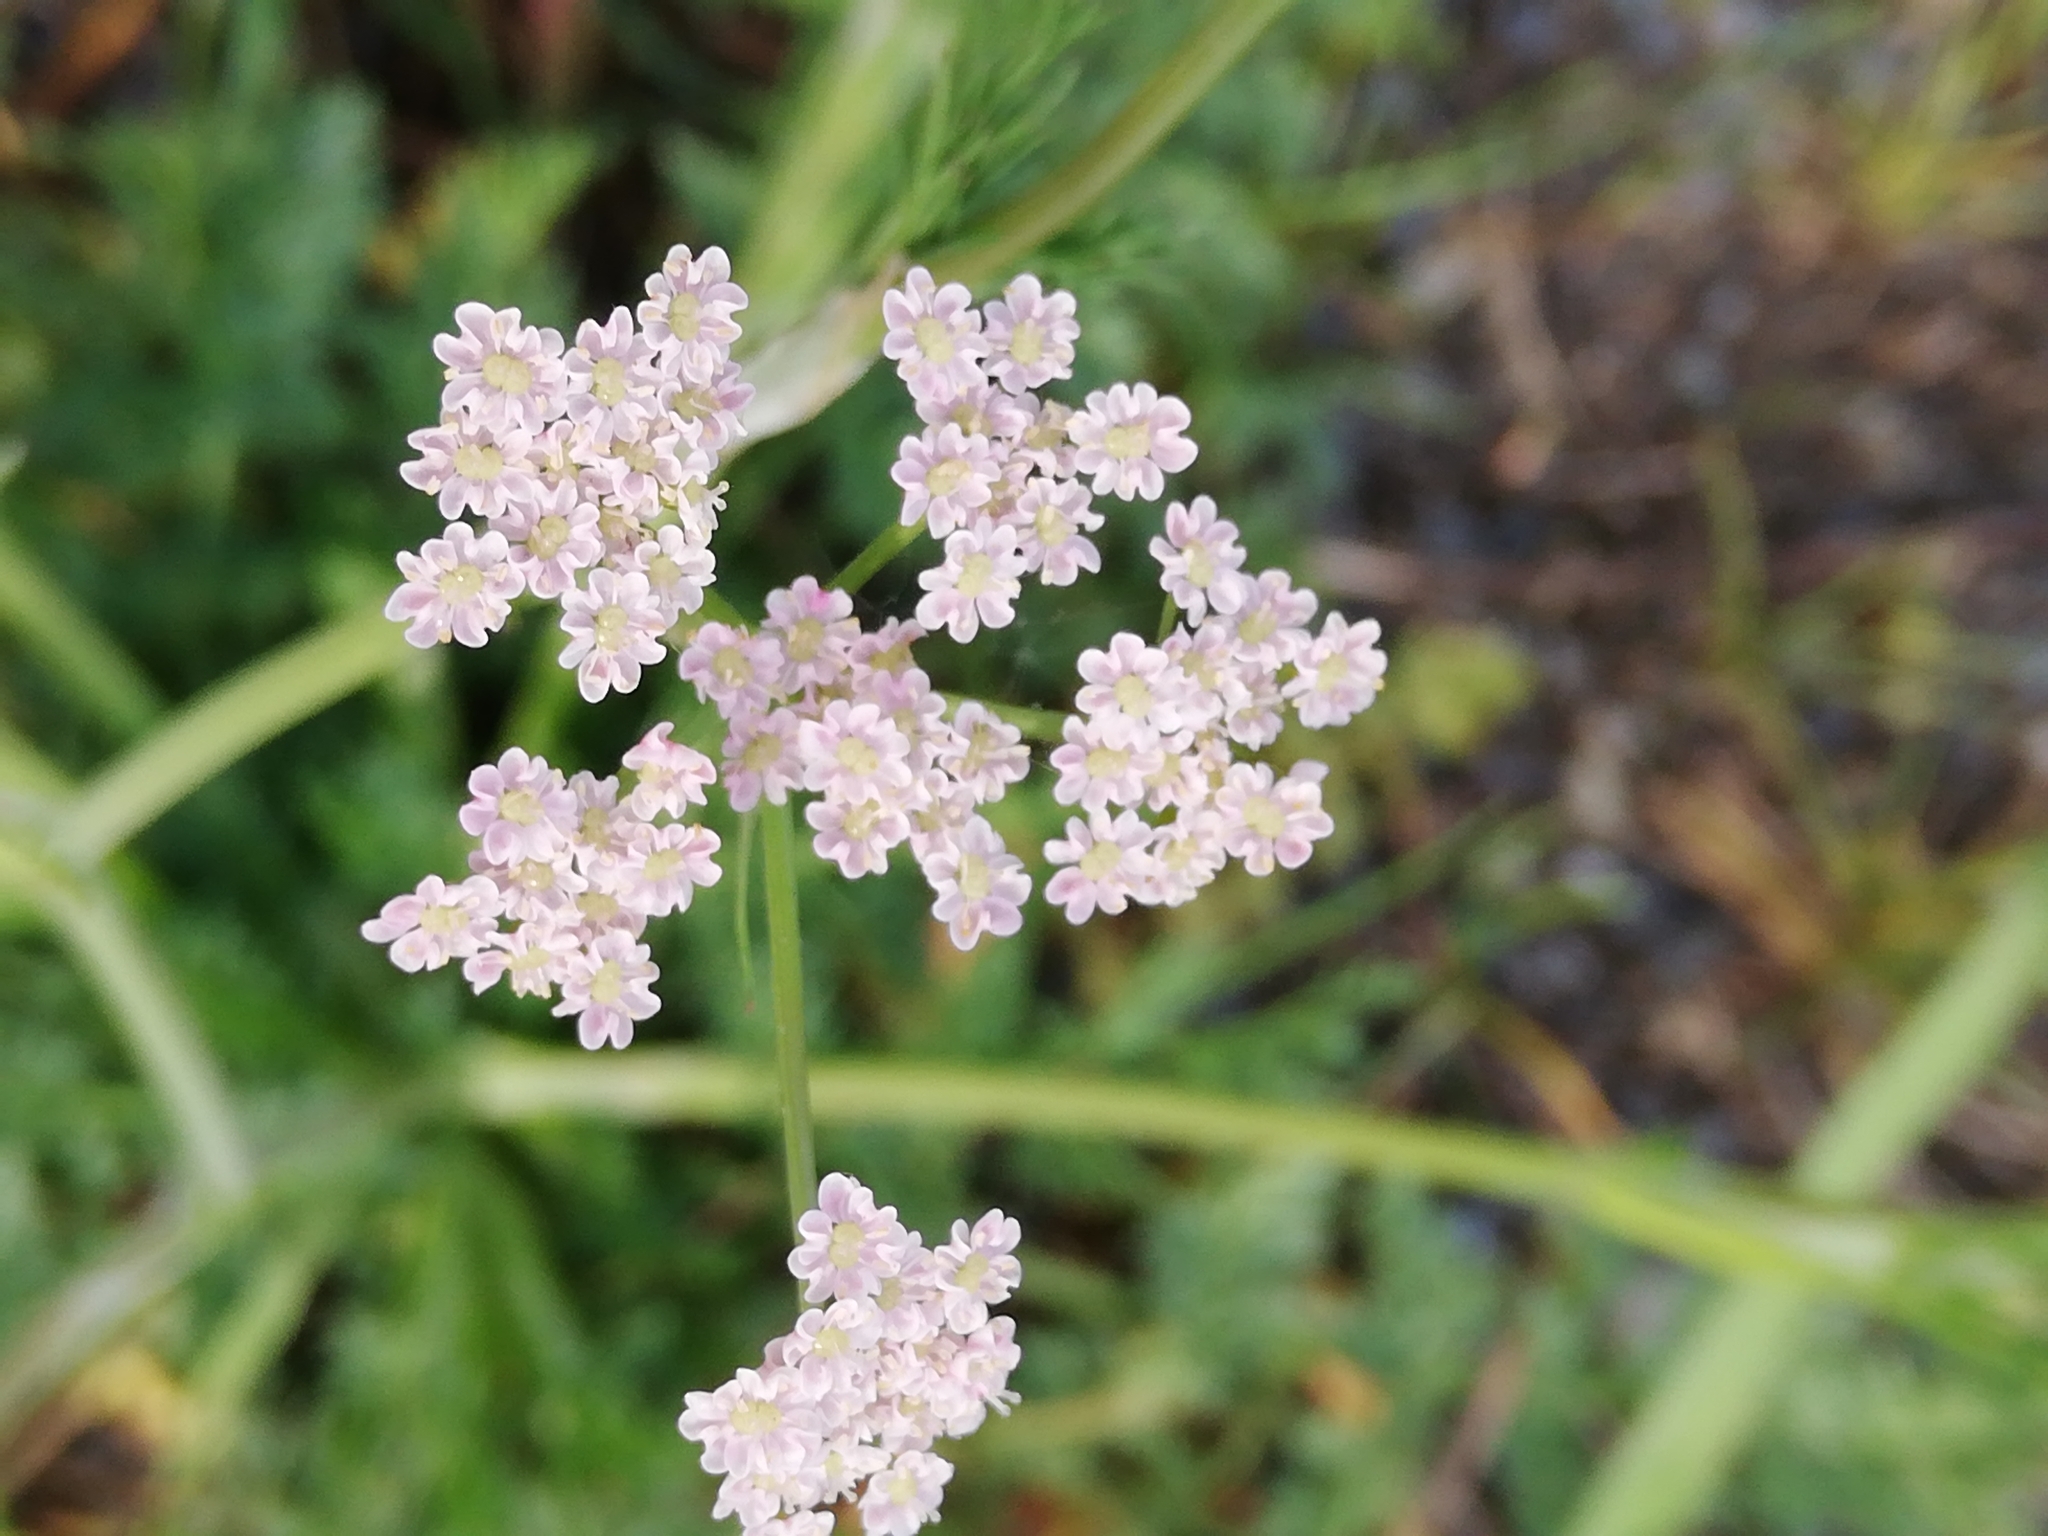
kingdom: Plantae
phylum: Tracheophyta
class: Magnoliopsida
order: Apiales
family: Apiaceae
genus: Carum
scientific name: Carum carvi
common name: Caraway
